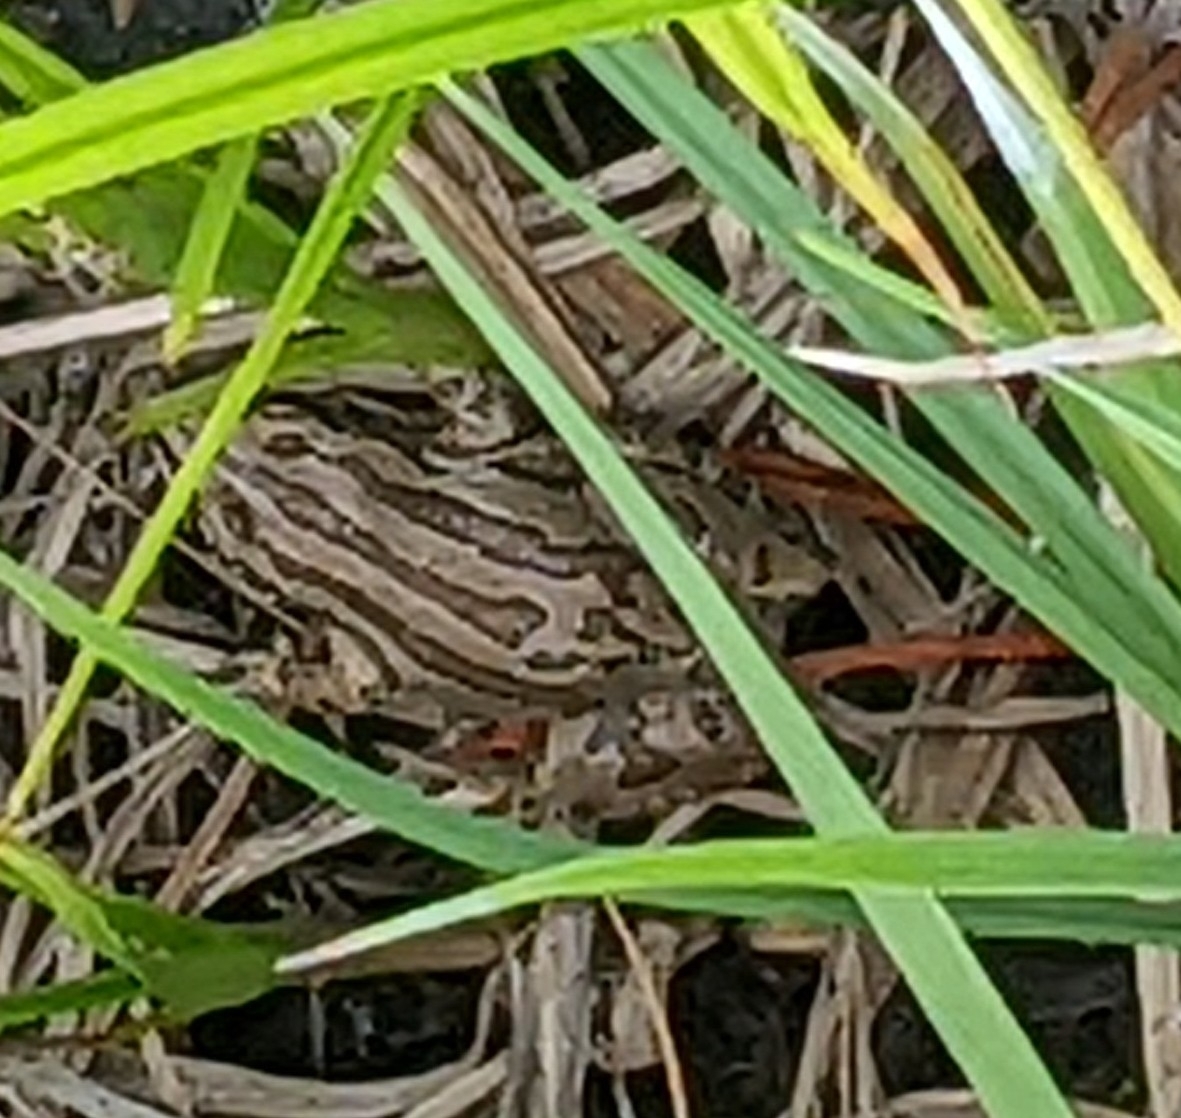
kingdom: Animalia
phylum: Chordata
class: Amphibia
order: Anura
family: Hylidae
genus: Pseudacris
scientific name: Pseudacris maculata
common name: Boreal chorus frog
